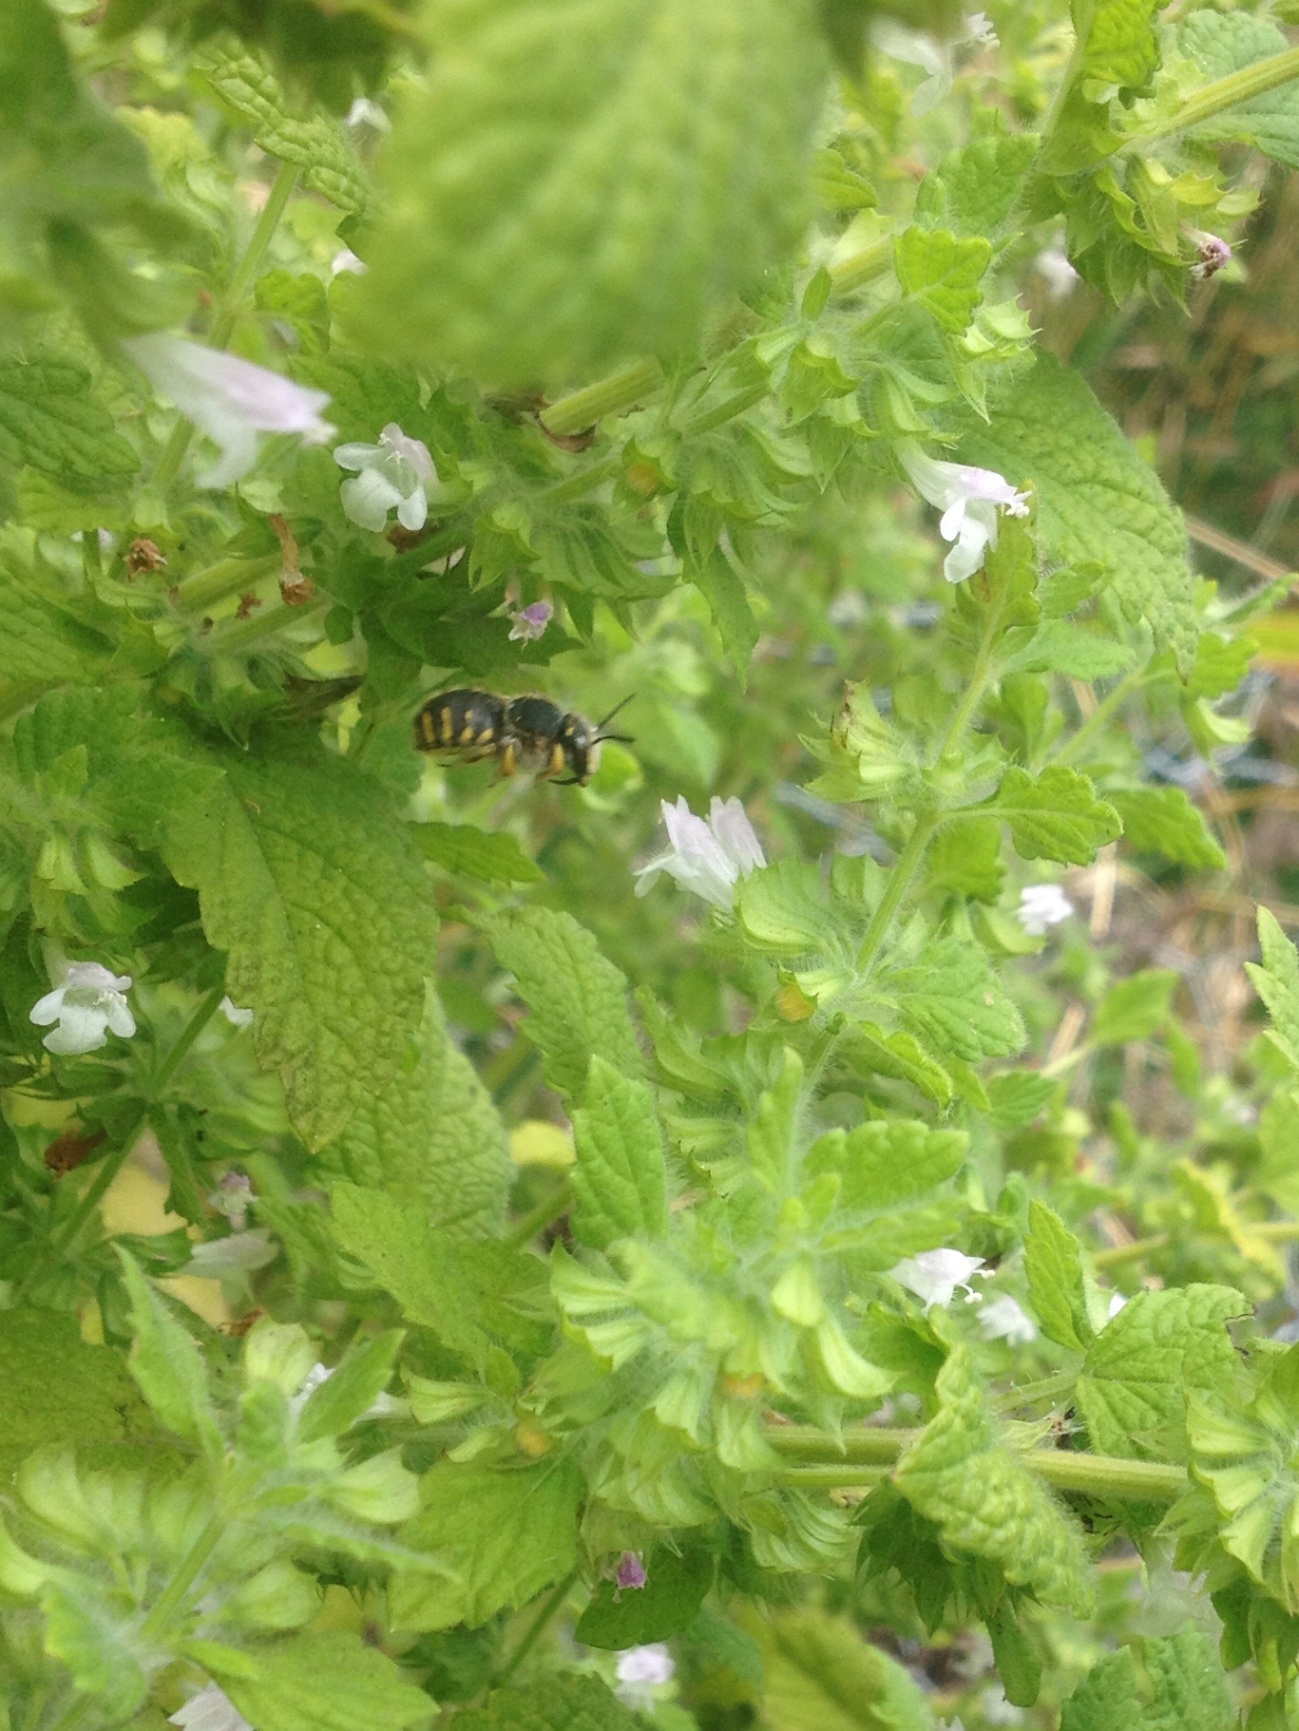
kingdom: Animalia
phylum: Arthropoda
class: Insecta
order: Hymenoptera
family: Megachilidae
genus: Anthidium
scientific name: Anthidium manicatum
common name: Wool carder bee
